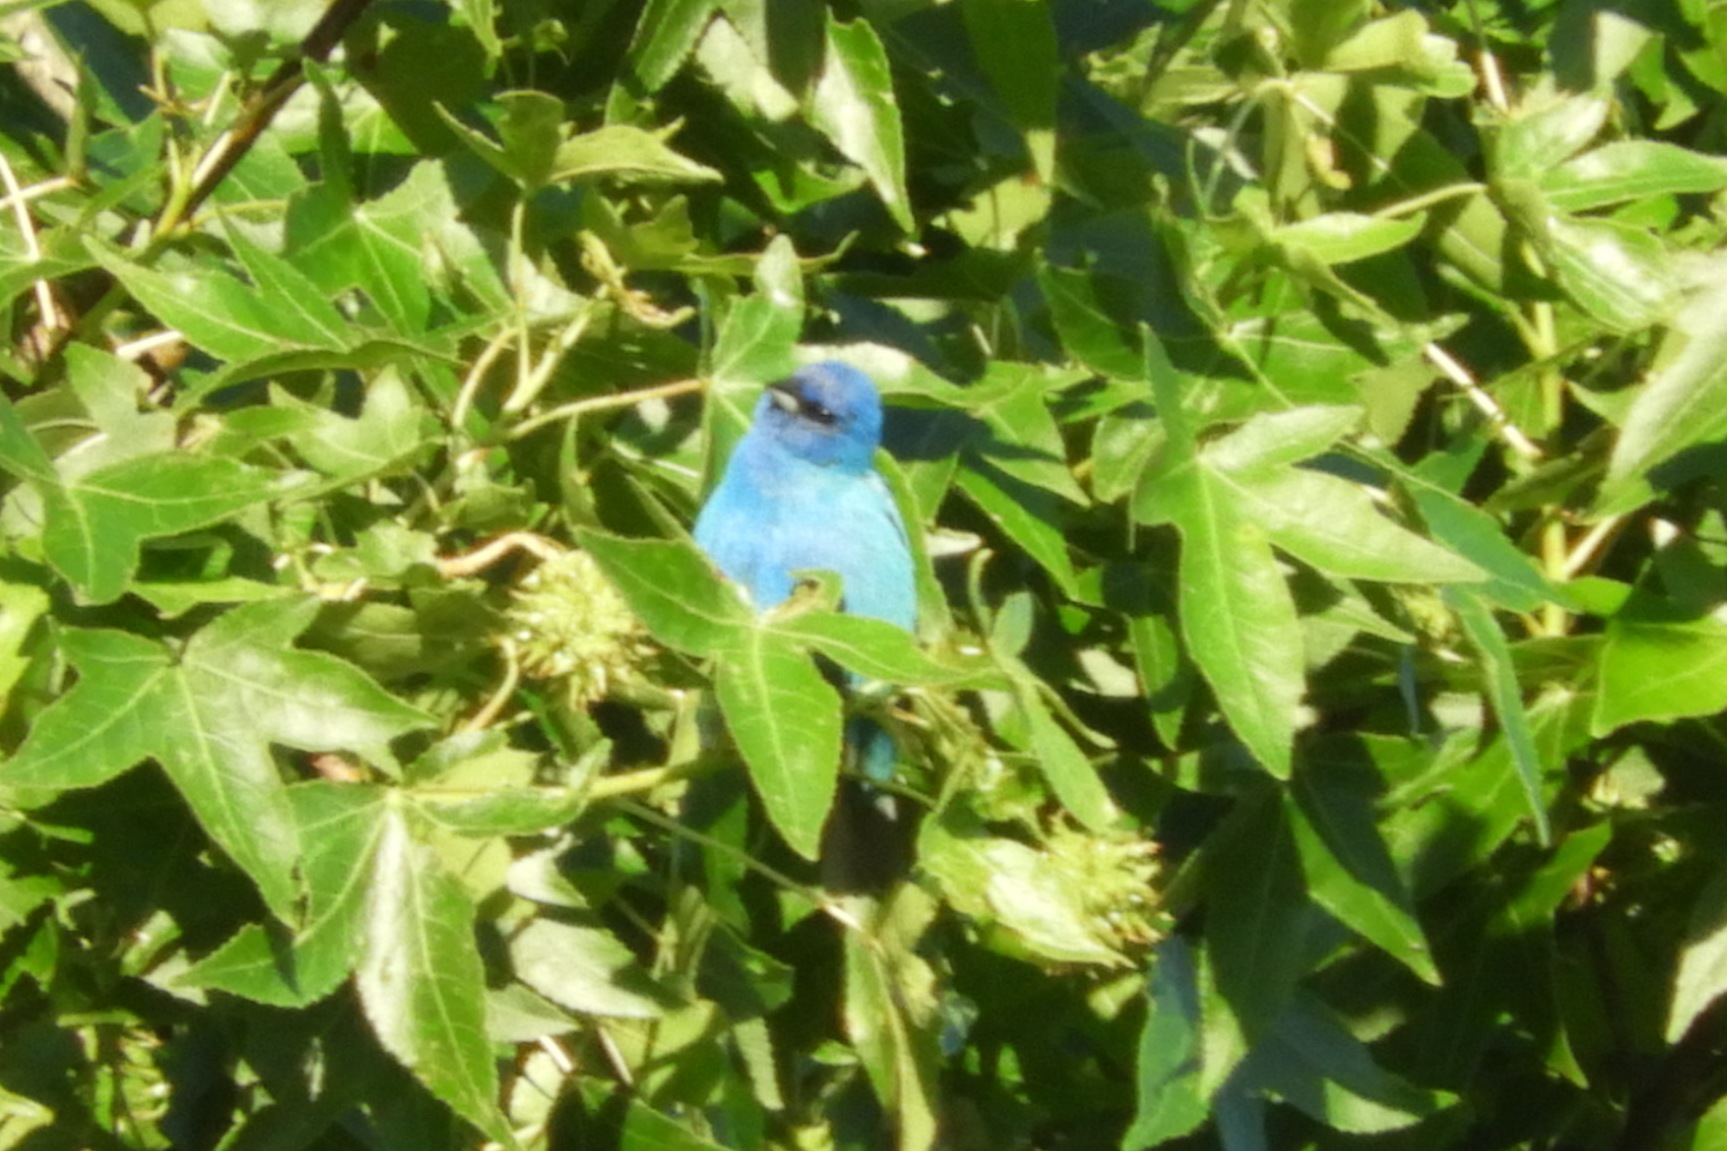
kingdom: Animalia
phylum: Chordata
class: Aves
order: Passeriformes
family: Cardinalidae
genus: Passerina
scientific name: Passerina cyanea
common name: Indigo bunting
